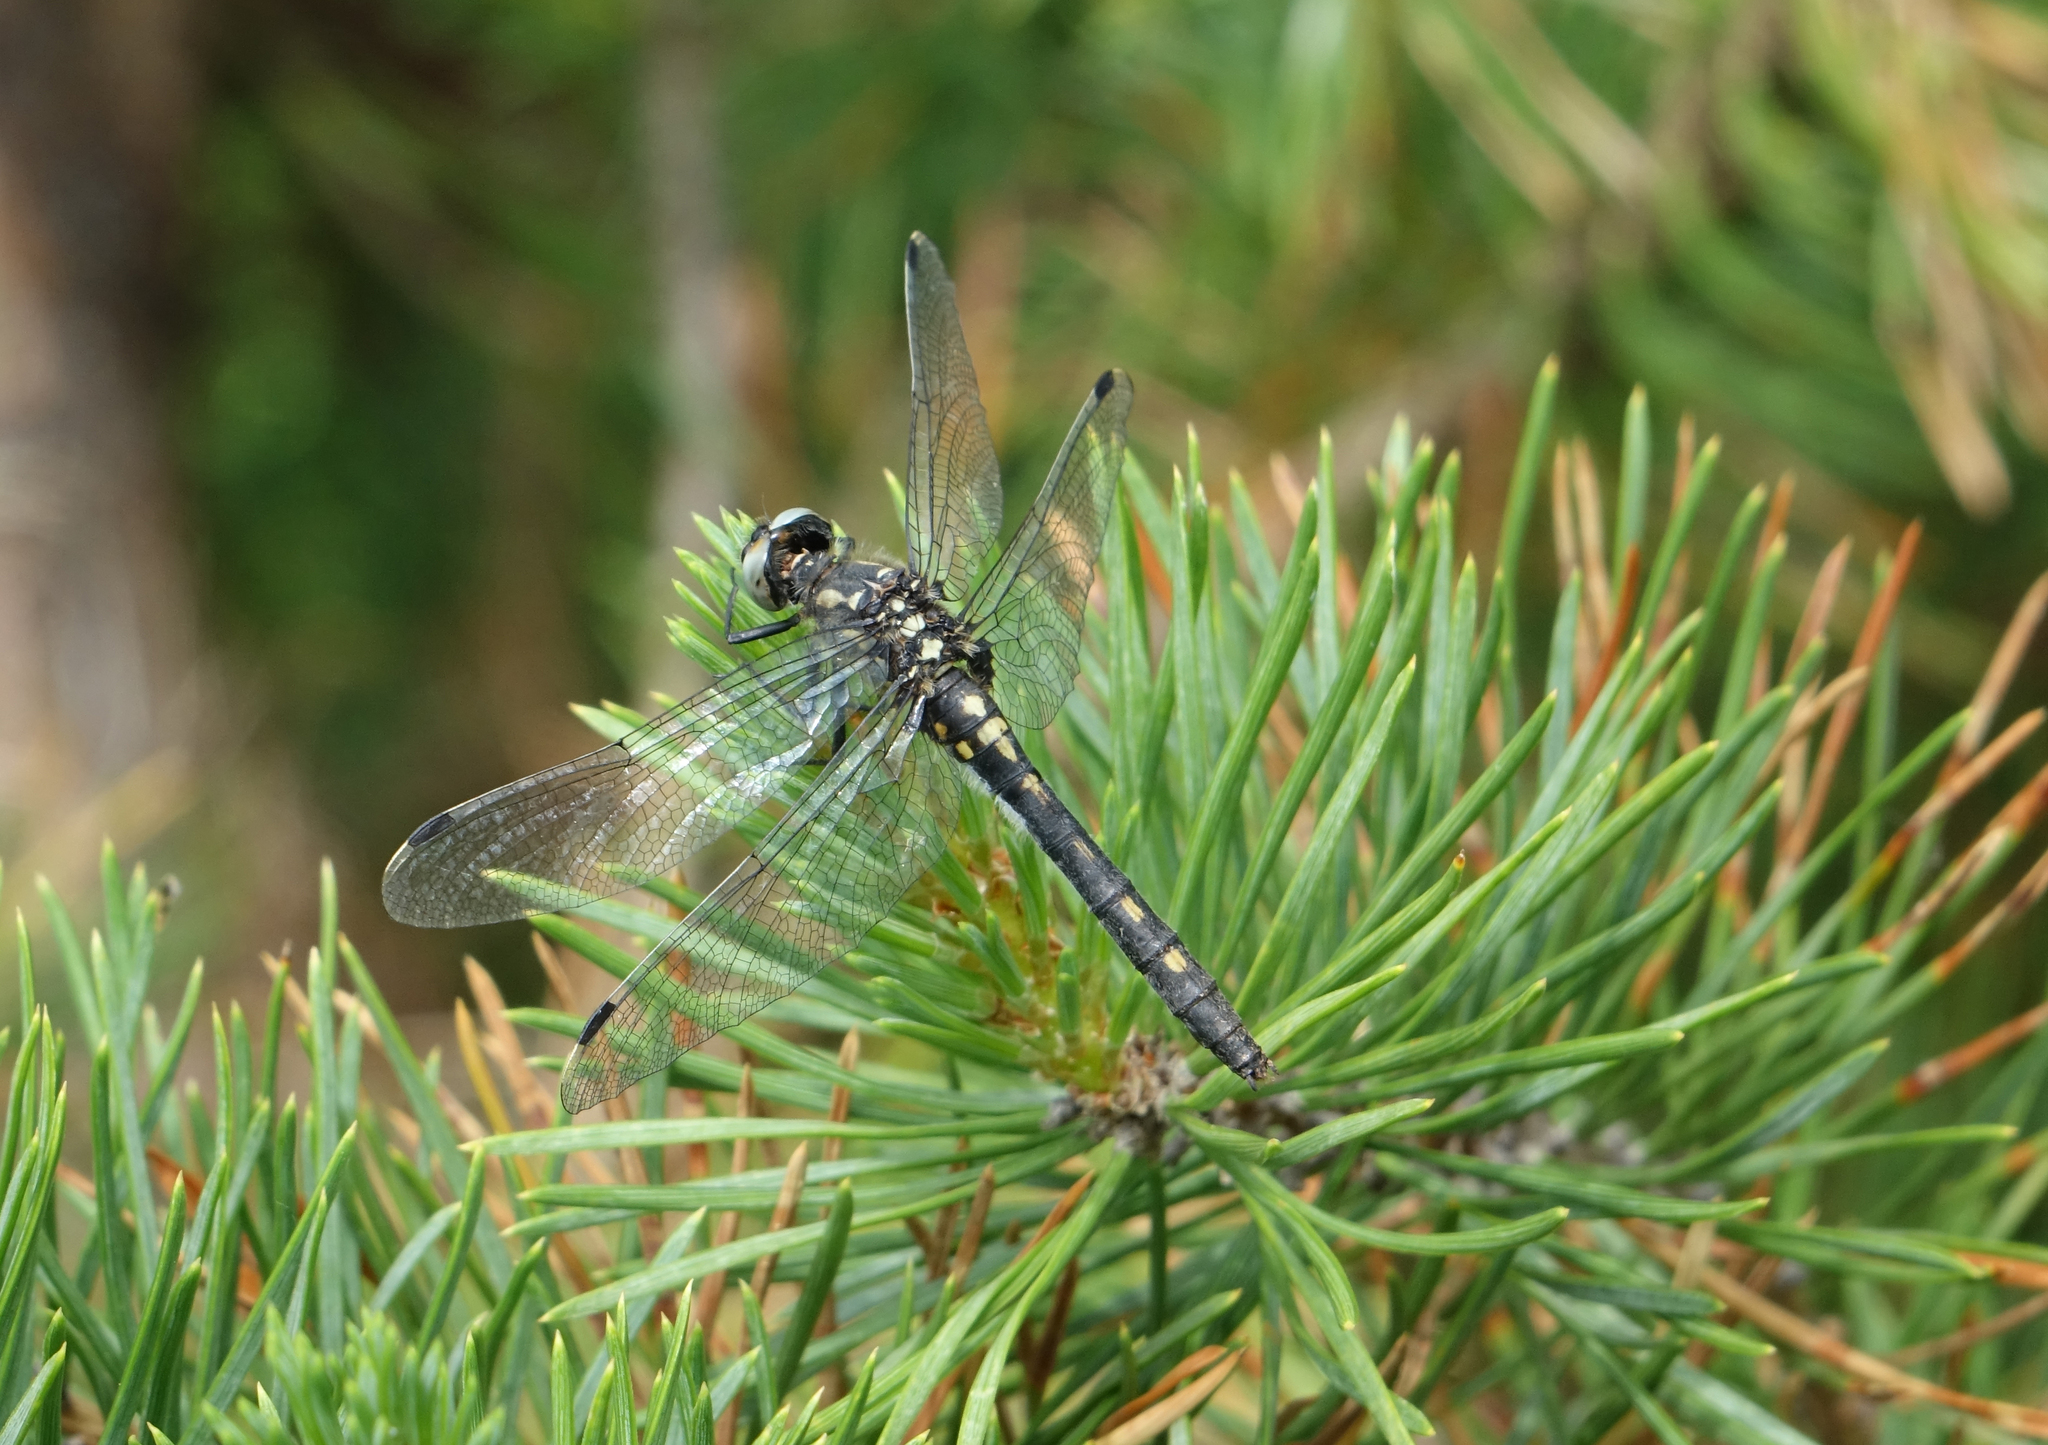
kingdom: Plantae
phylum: Tracheophyta
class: Pinopsida
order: Pinales
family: Pinaceae
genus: Pinus
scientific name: Pinus sylvestris
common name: Scots pine
